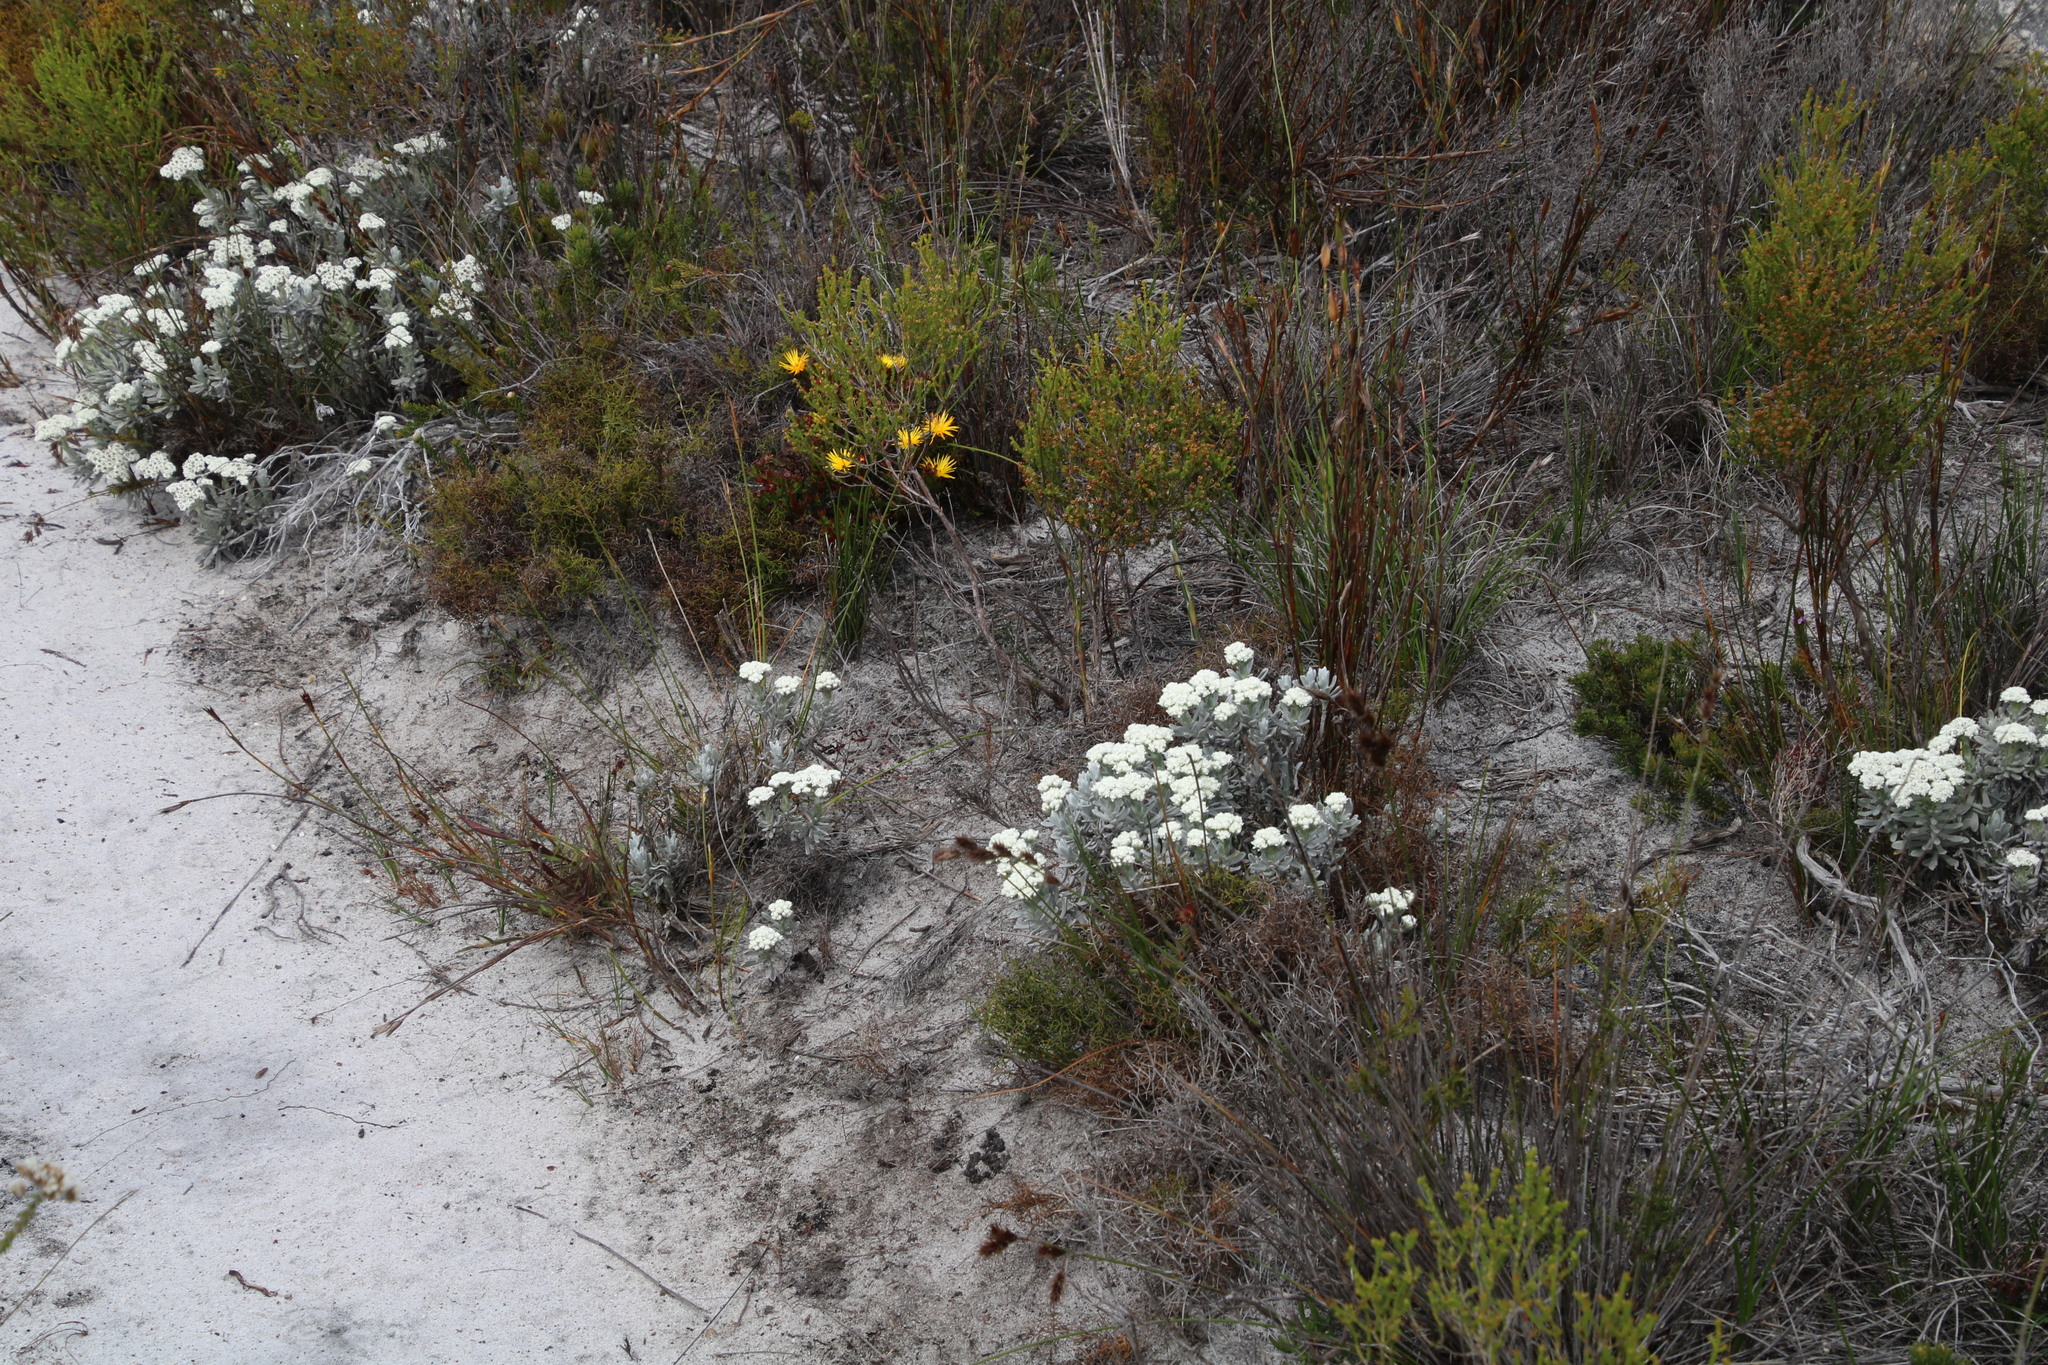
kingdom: Plantae
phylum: Tracheophyta
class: Magnoliopsida
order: Asterales
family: Asteraceae
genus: Petalacte
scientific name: Petalacte coronata
